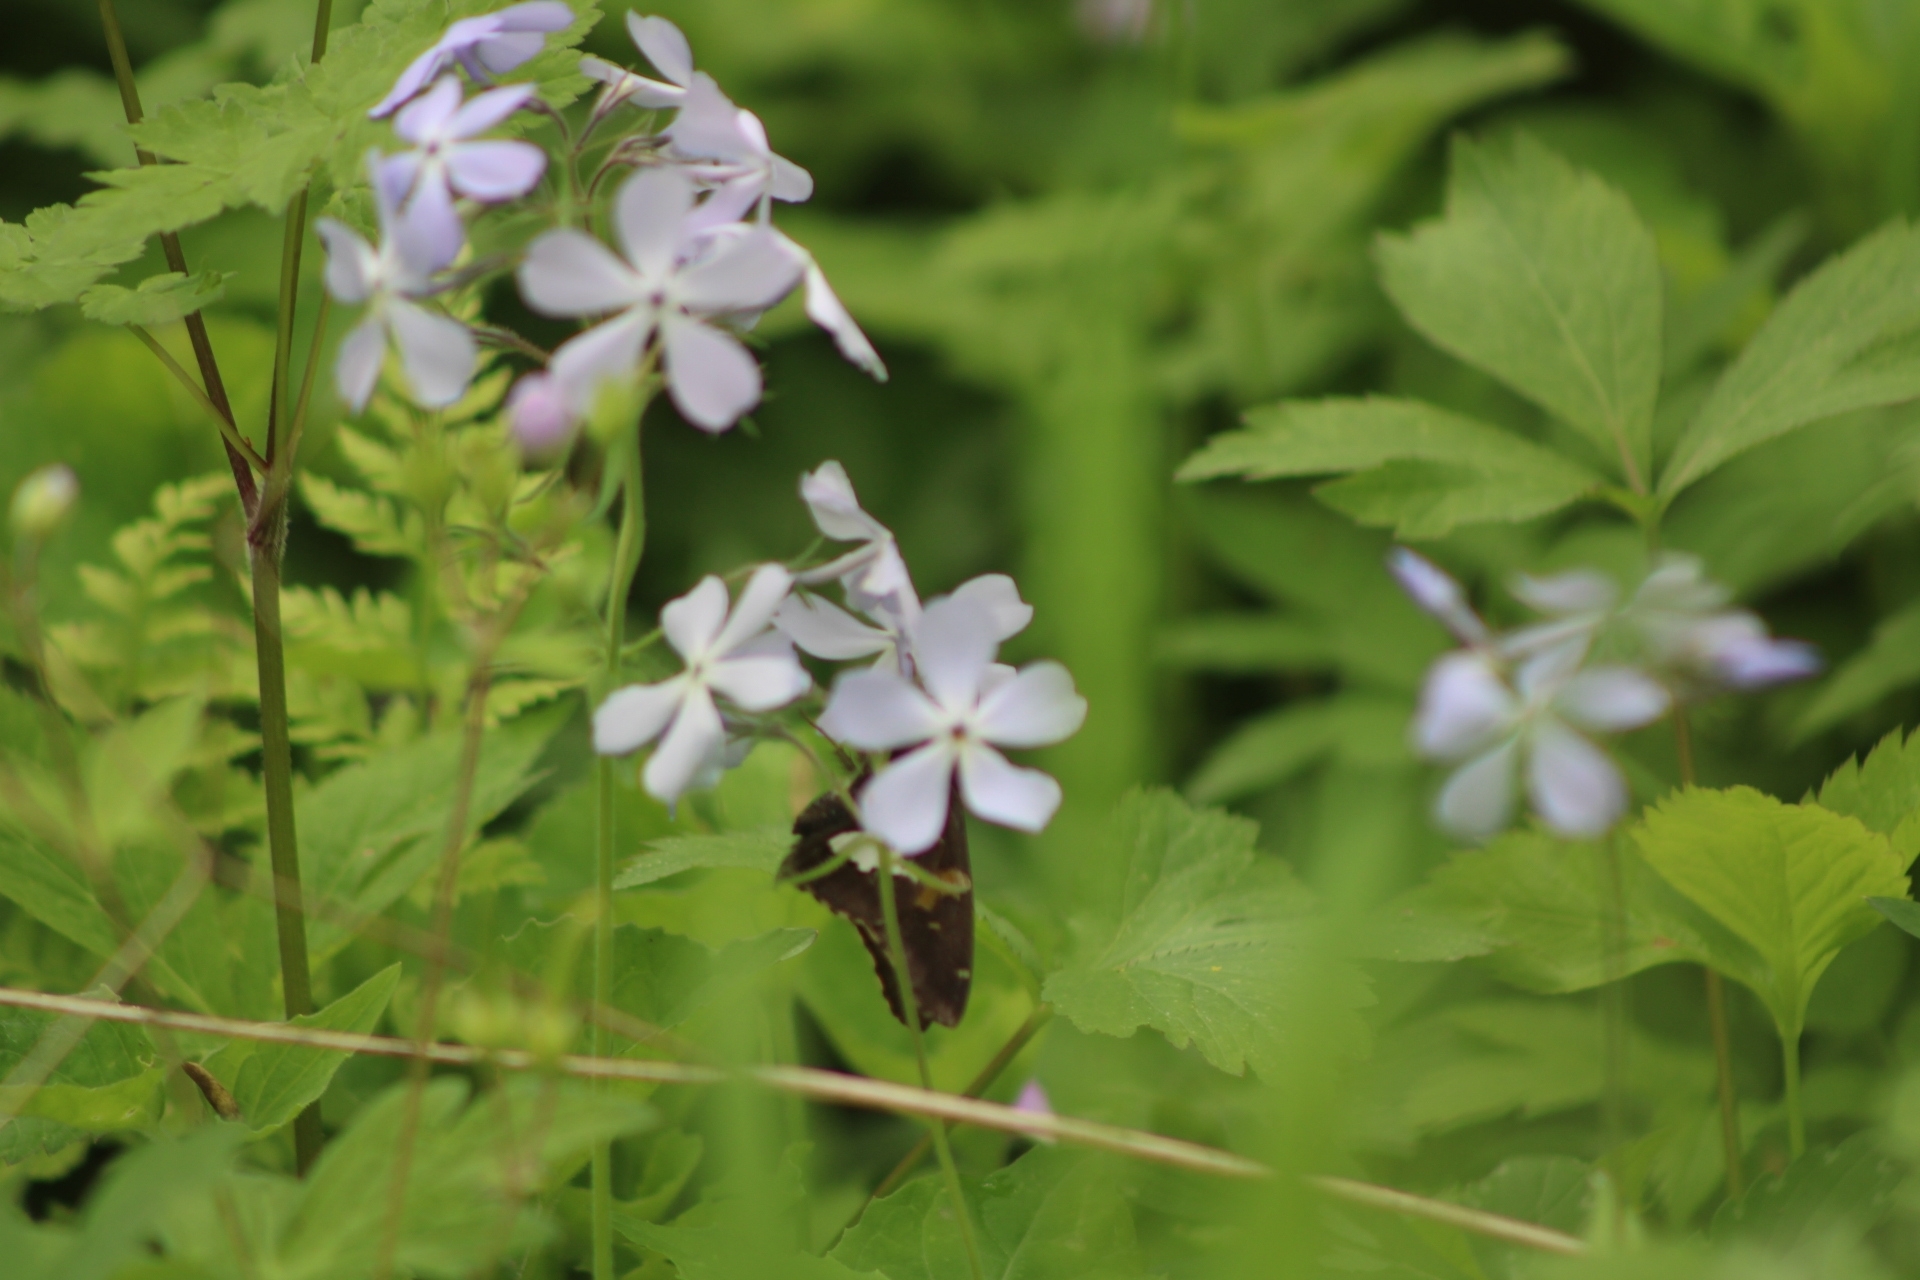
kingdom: Animalia
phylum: Arthropoda
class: Insecta
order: Lepidoptera
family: Hesperiidae
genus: Epargyreus
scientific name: Epargyreus clarus
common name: Silver-spotted skipper
